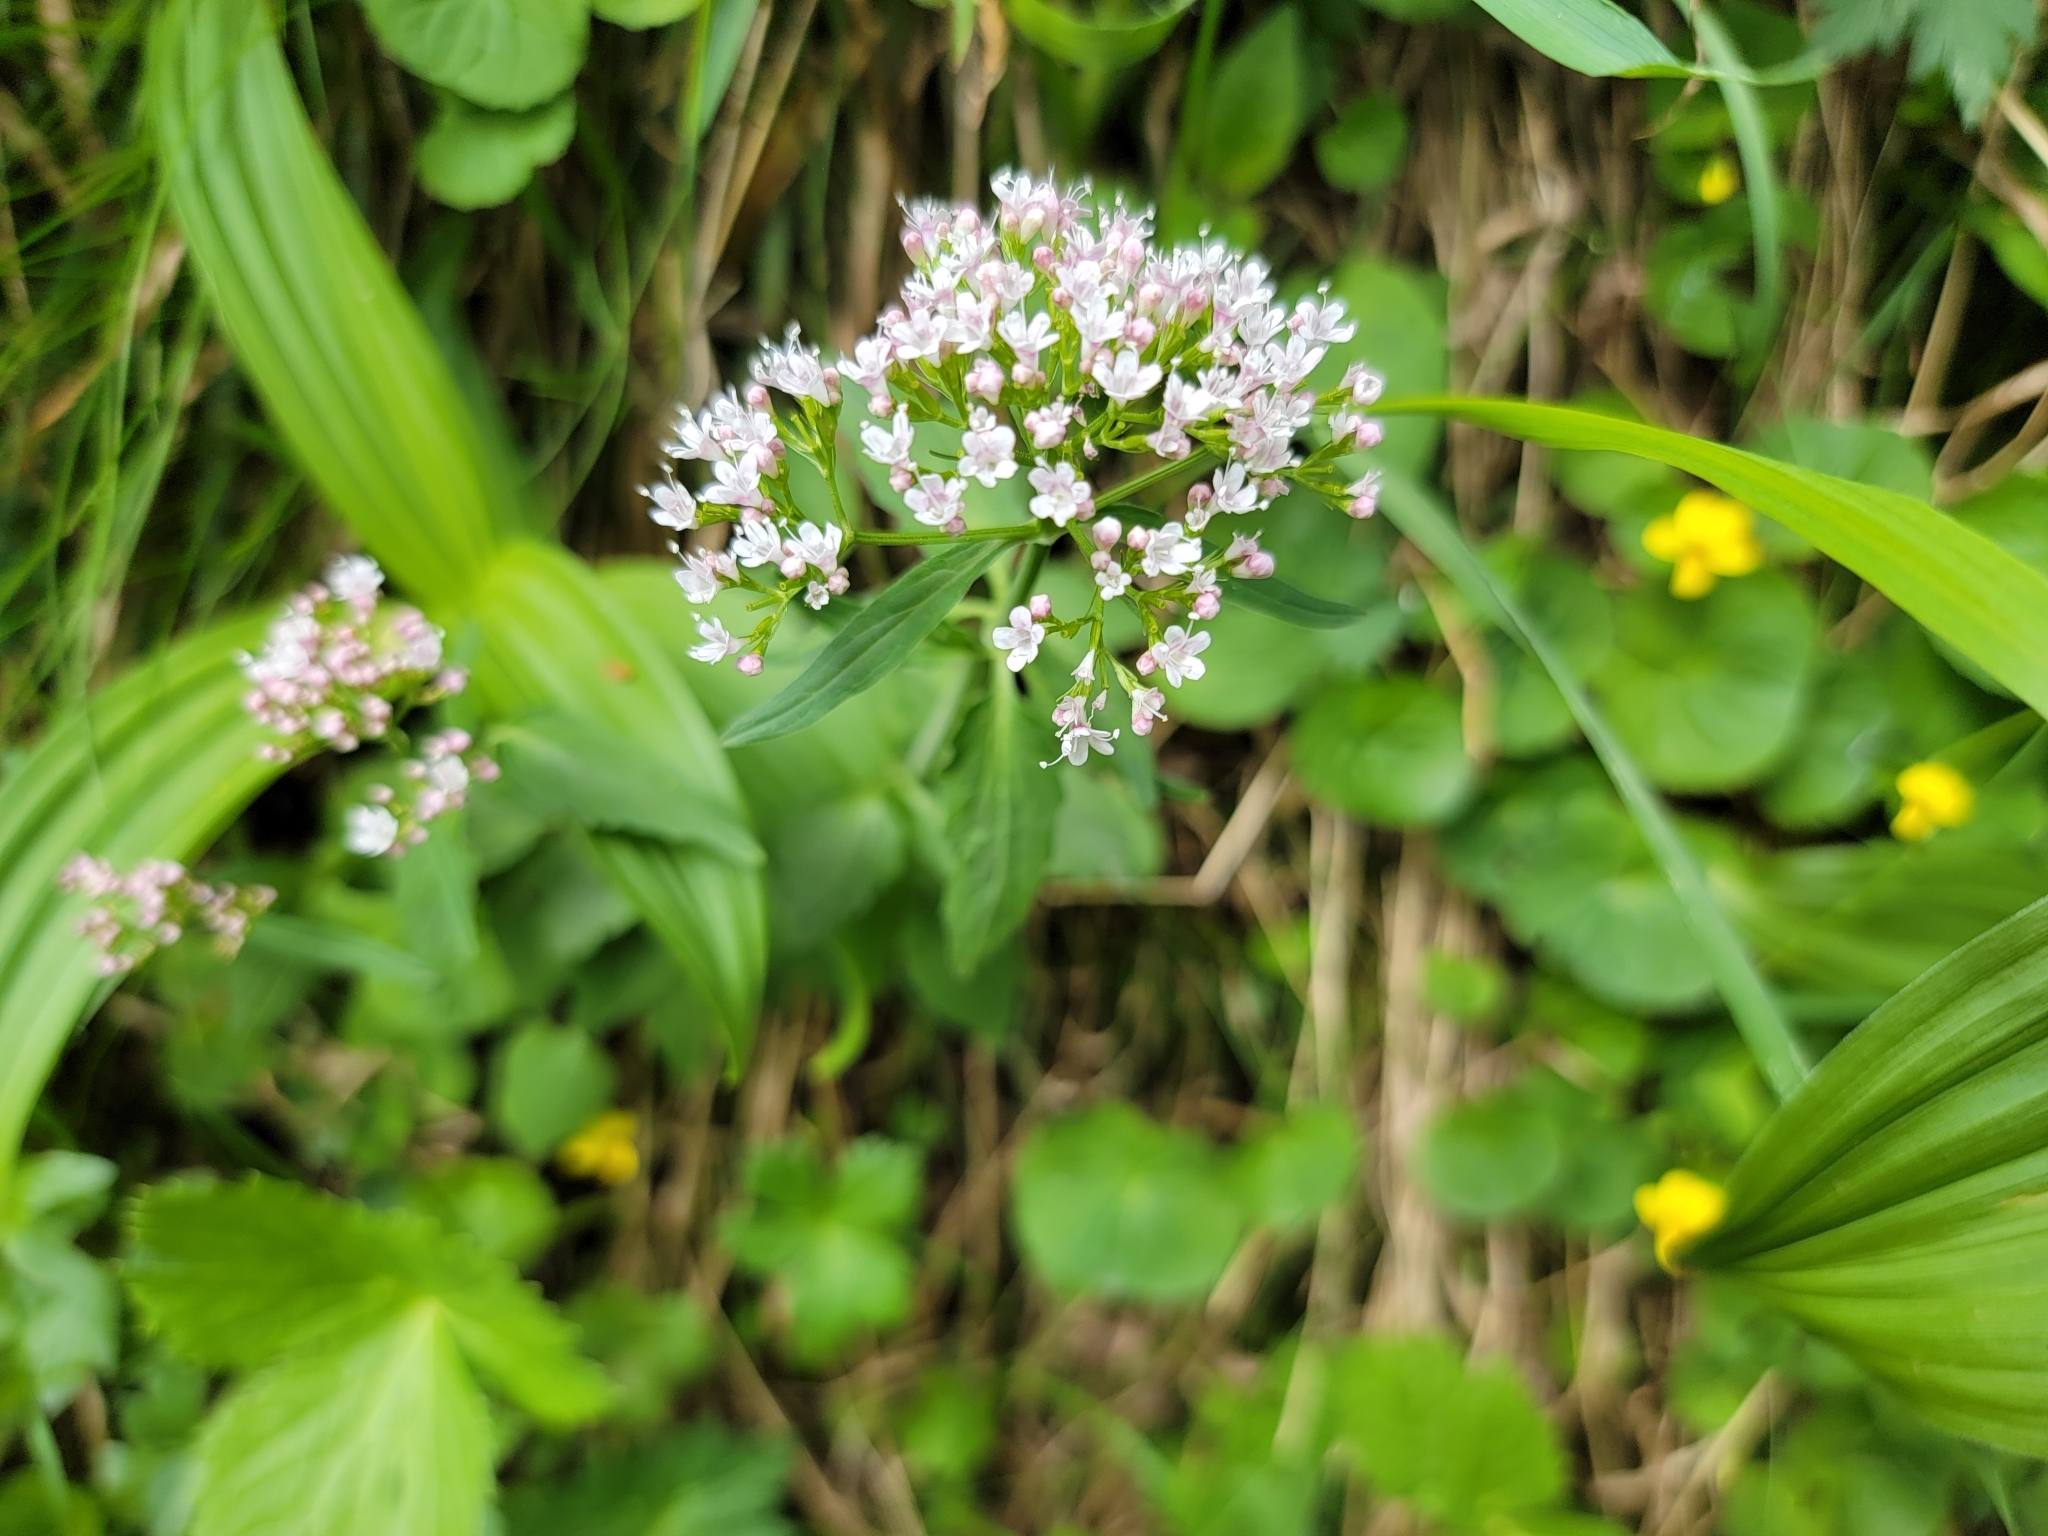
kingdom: Plantae
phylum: Tracheophyta
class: Magnoliopsida
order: Dipsacales
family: Caprifoliaceae
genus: Valeriana
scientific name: Valeriana tripteris
